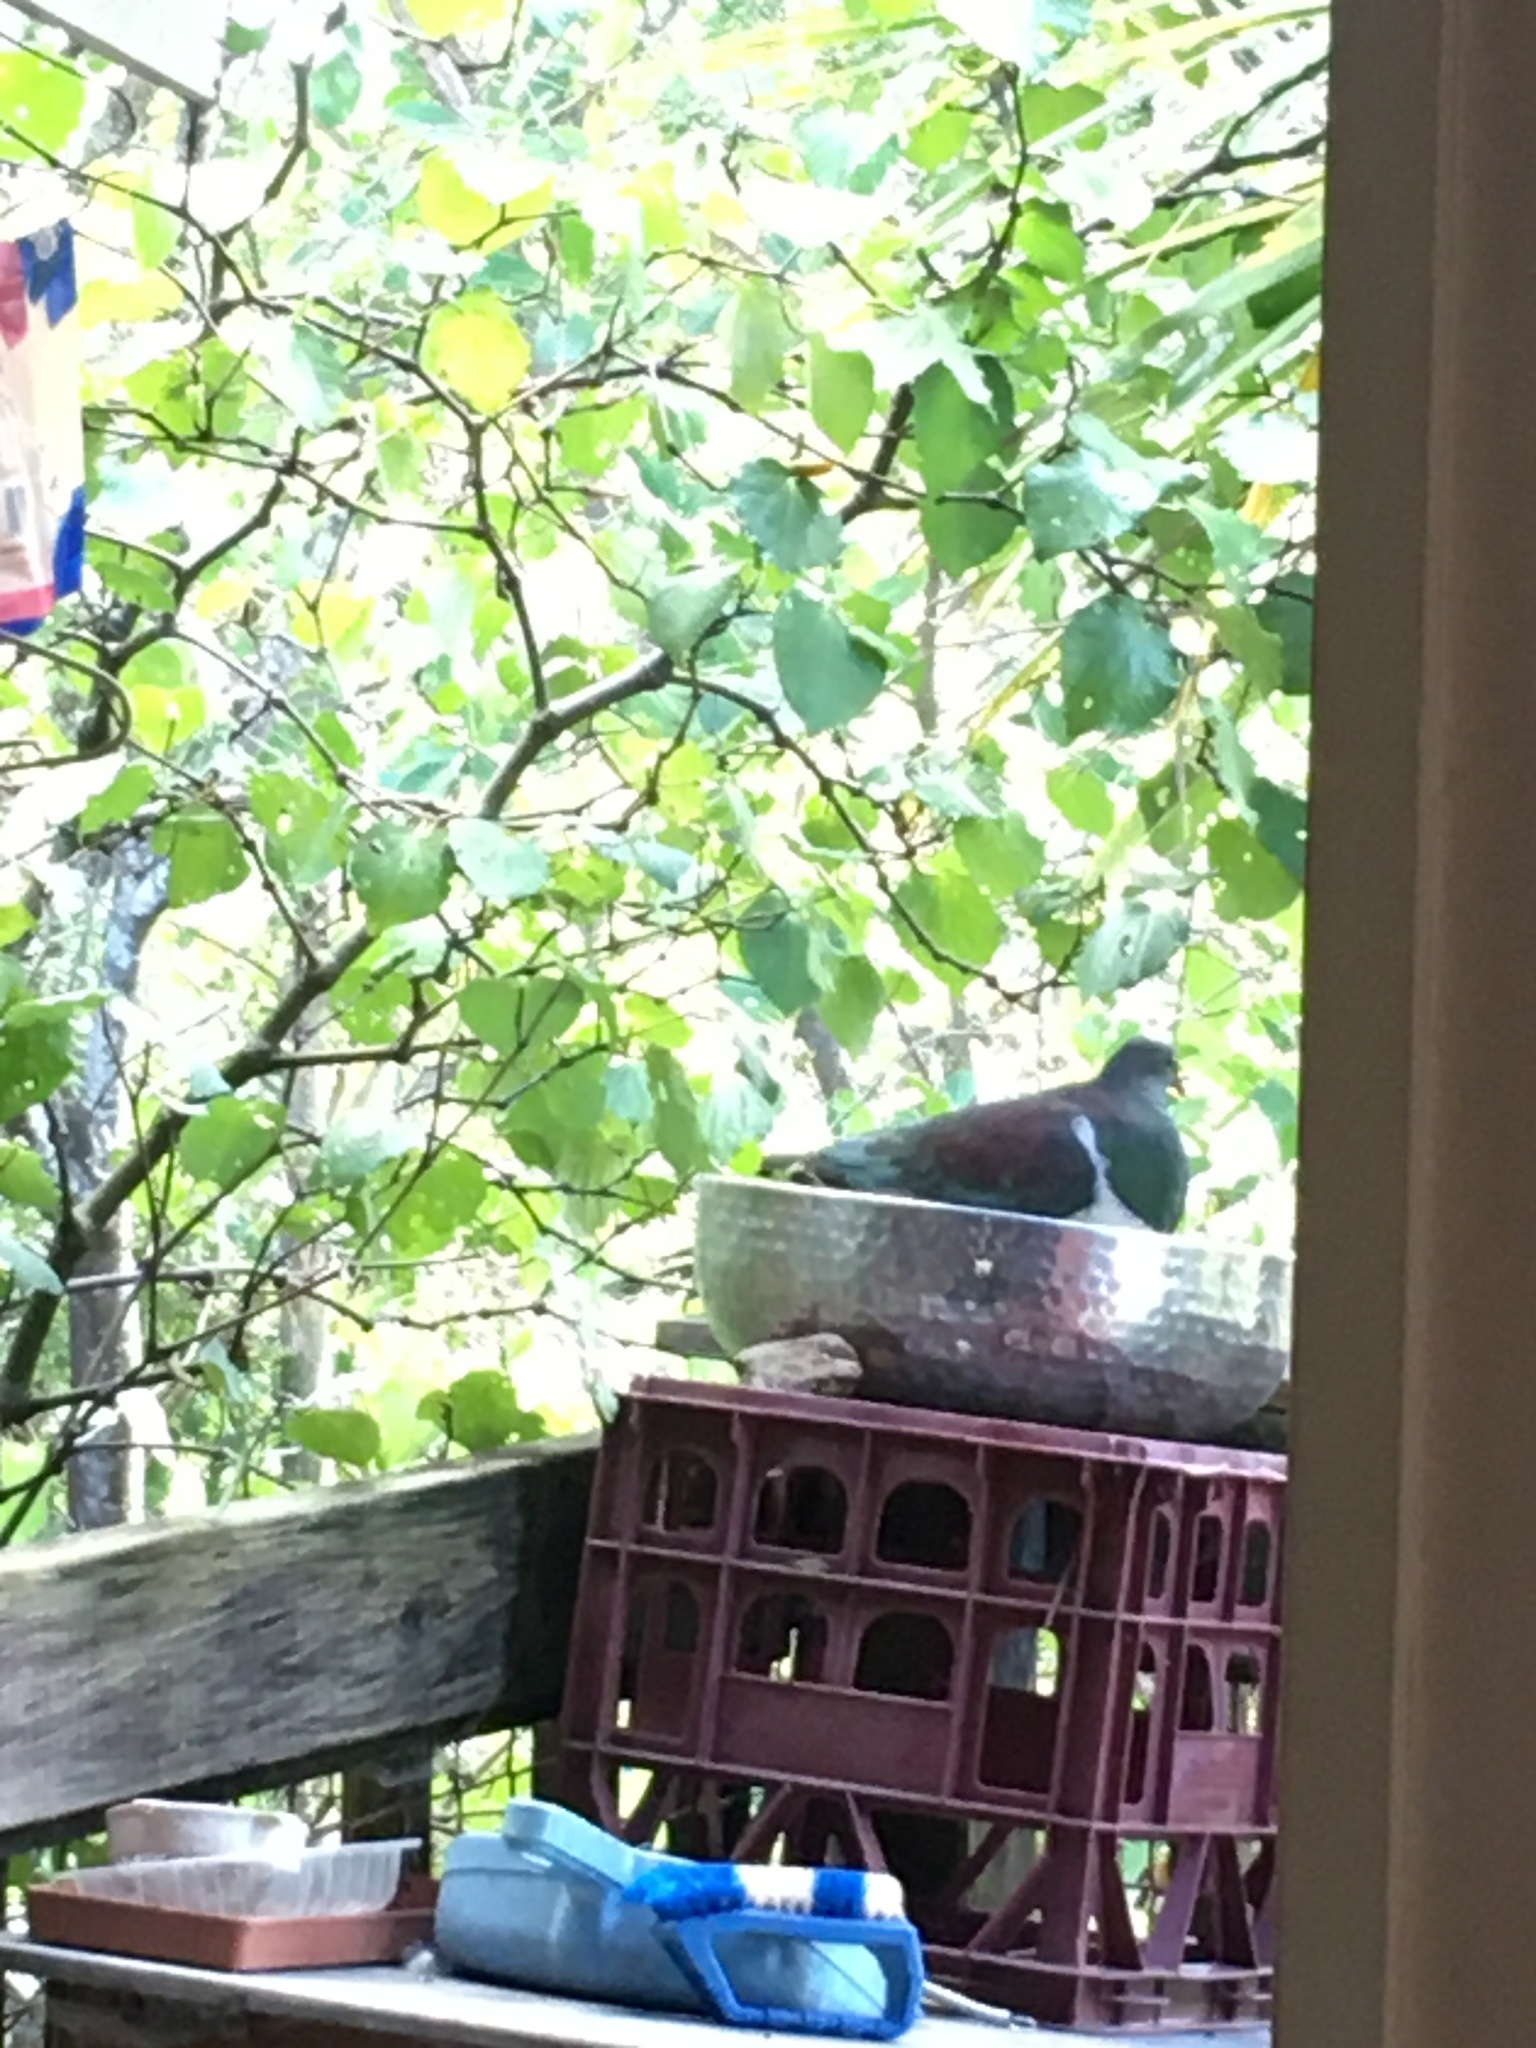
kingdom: Animalia
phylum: Chordata
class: Aves
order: Columbiformes
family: Columbidae
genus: Hemiphaga
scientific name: Hemiphaga novaeseelandiae
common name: New zealand pigeon
